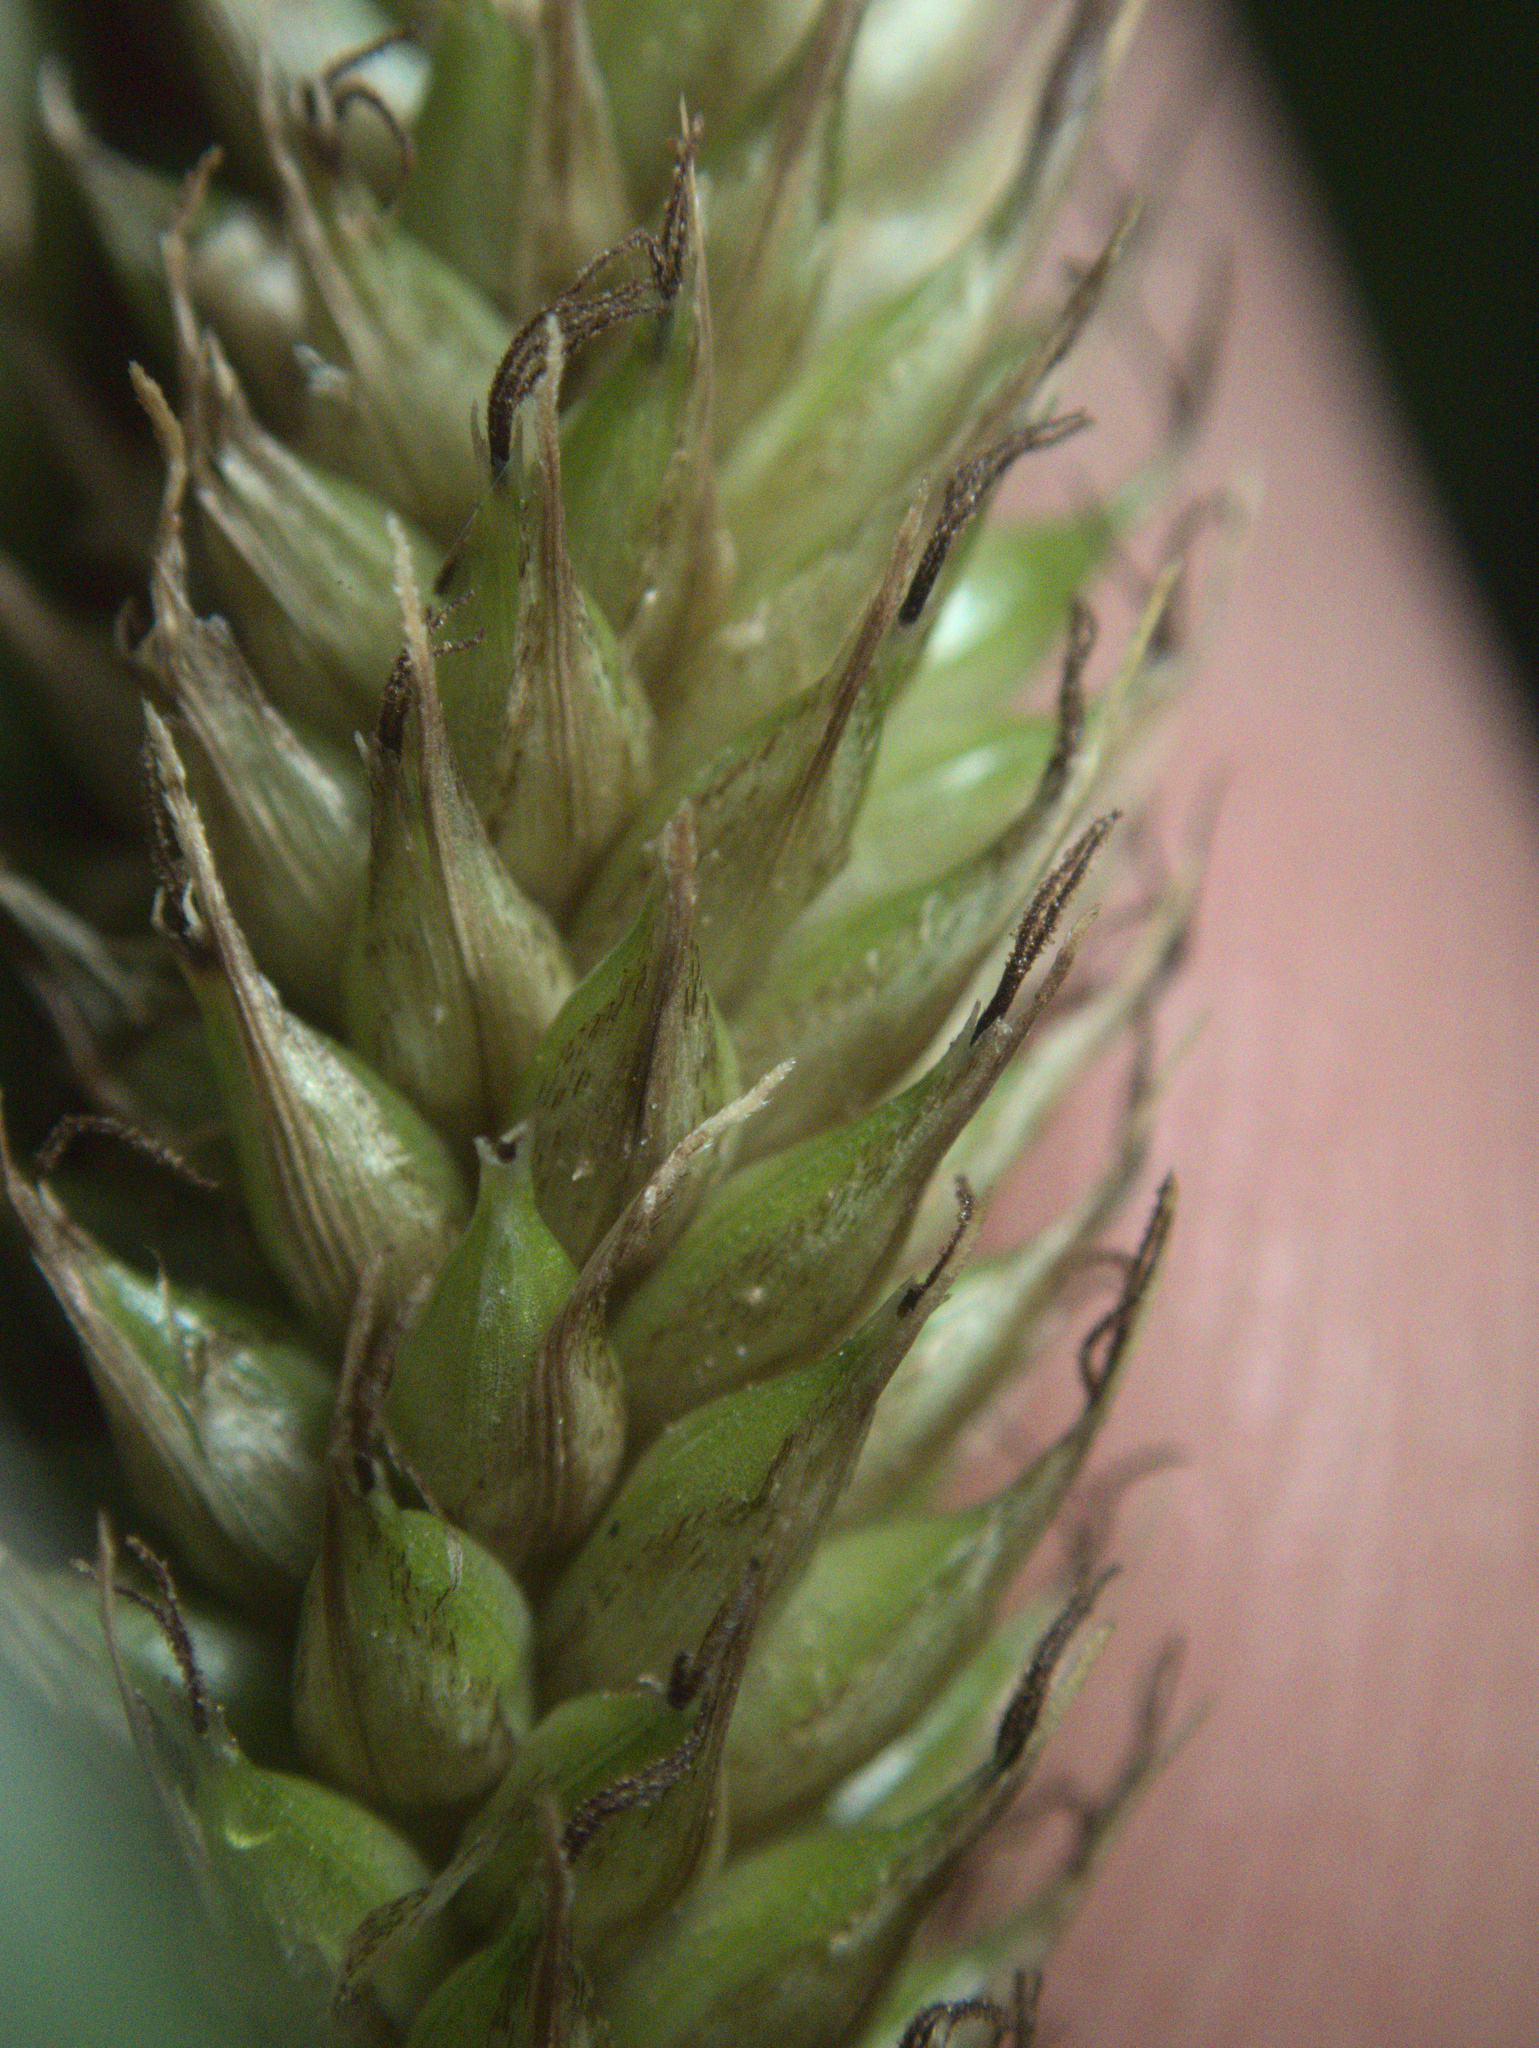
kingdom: Plantae
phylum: Tracheophyta
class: Liliopsida
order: Poales
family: Cyperaceae
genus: Carex
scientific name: Carex ventosa
